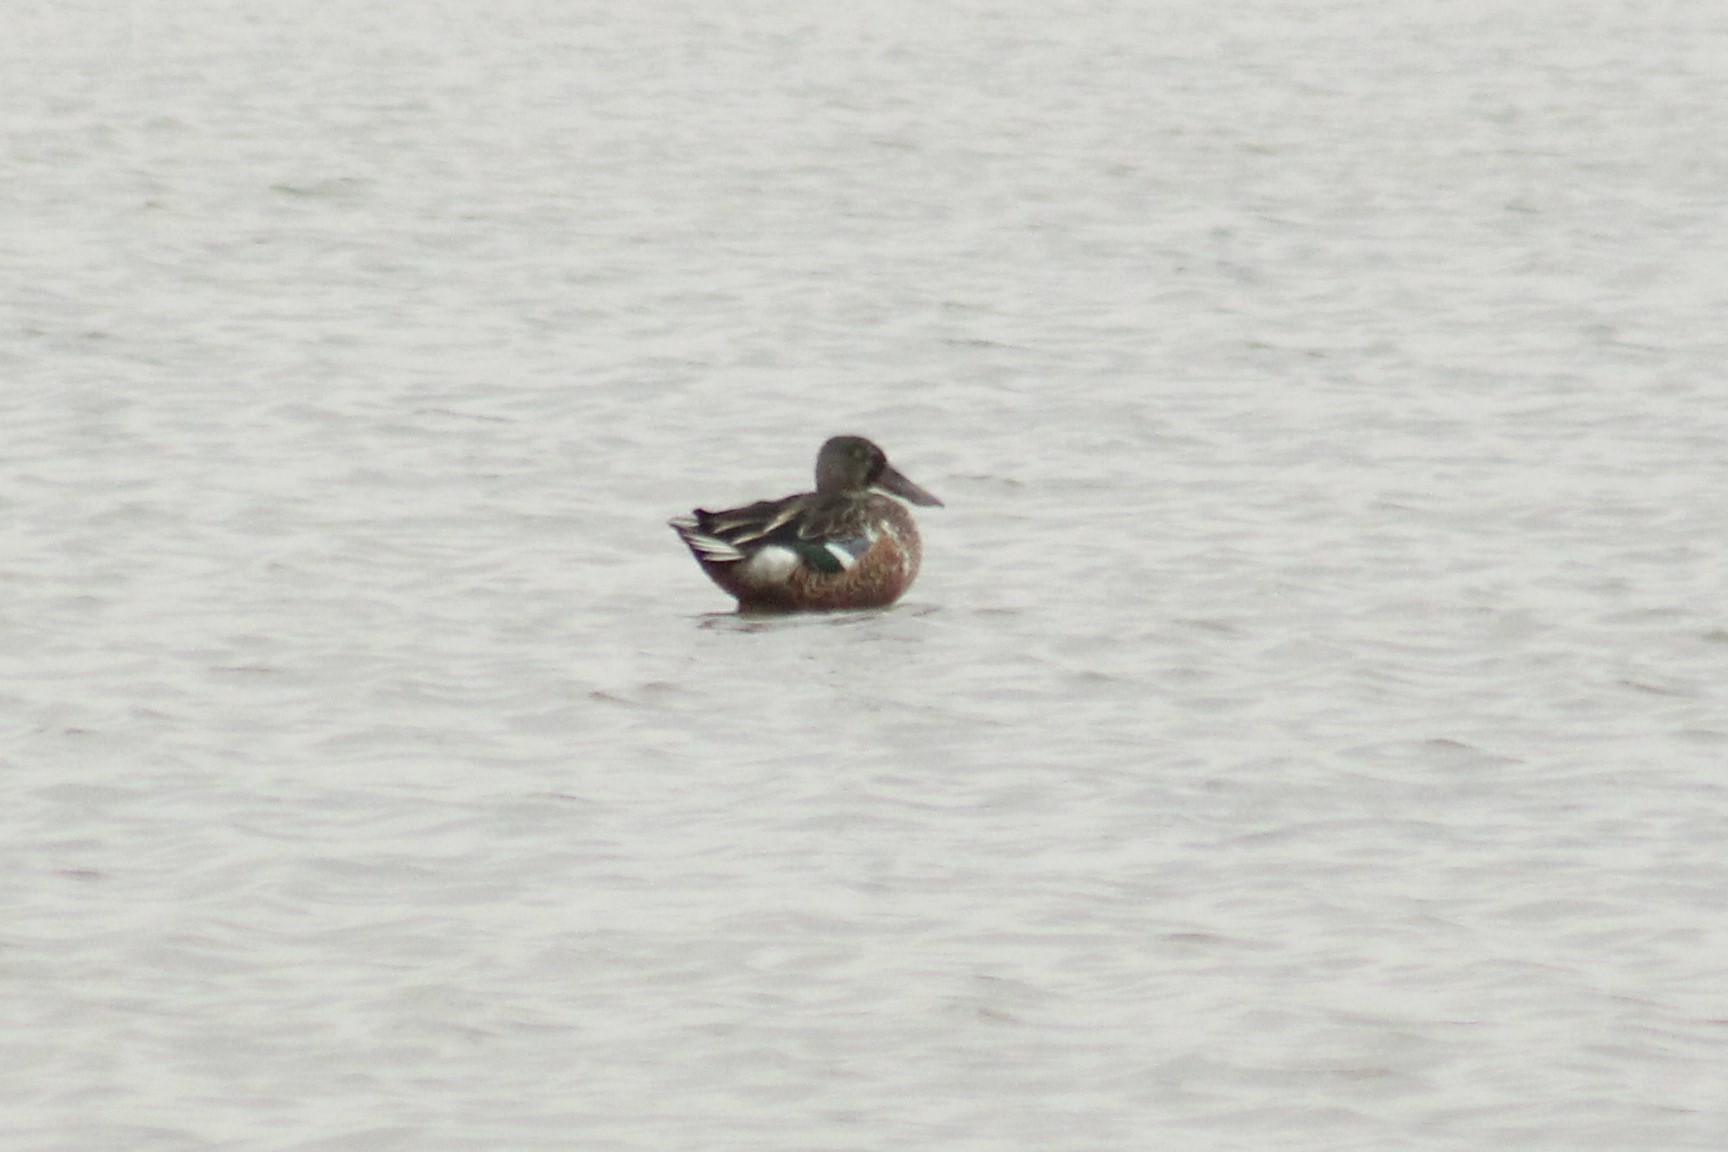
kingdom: Animalia
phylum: Chordata
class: Aves
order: Anseriformes
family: Anatidae
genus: Spatula
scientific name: Spatula clypeata
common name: Northern shoveler
